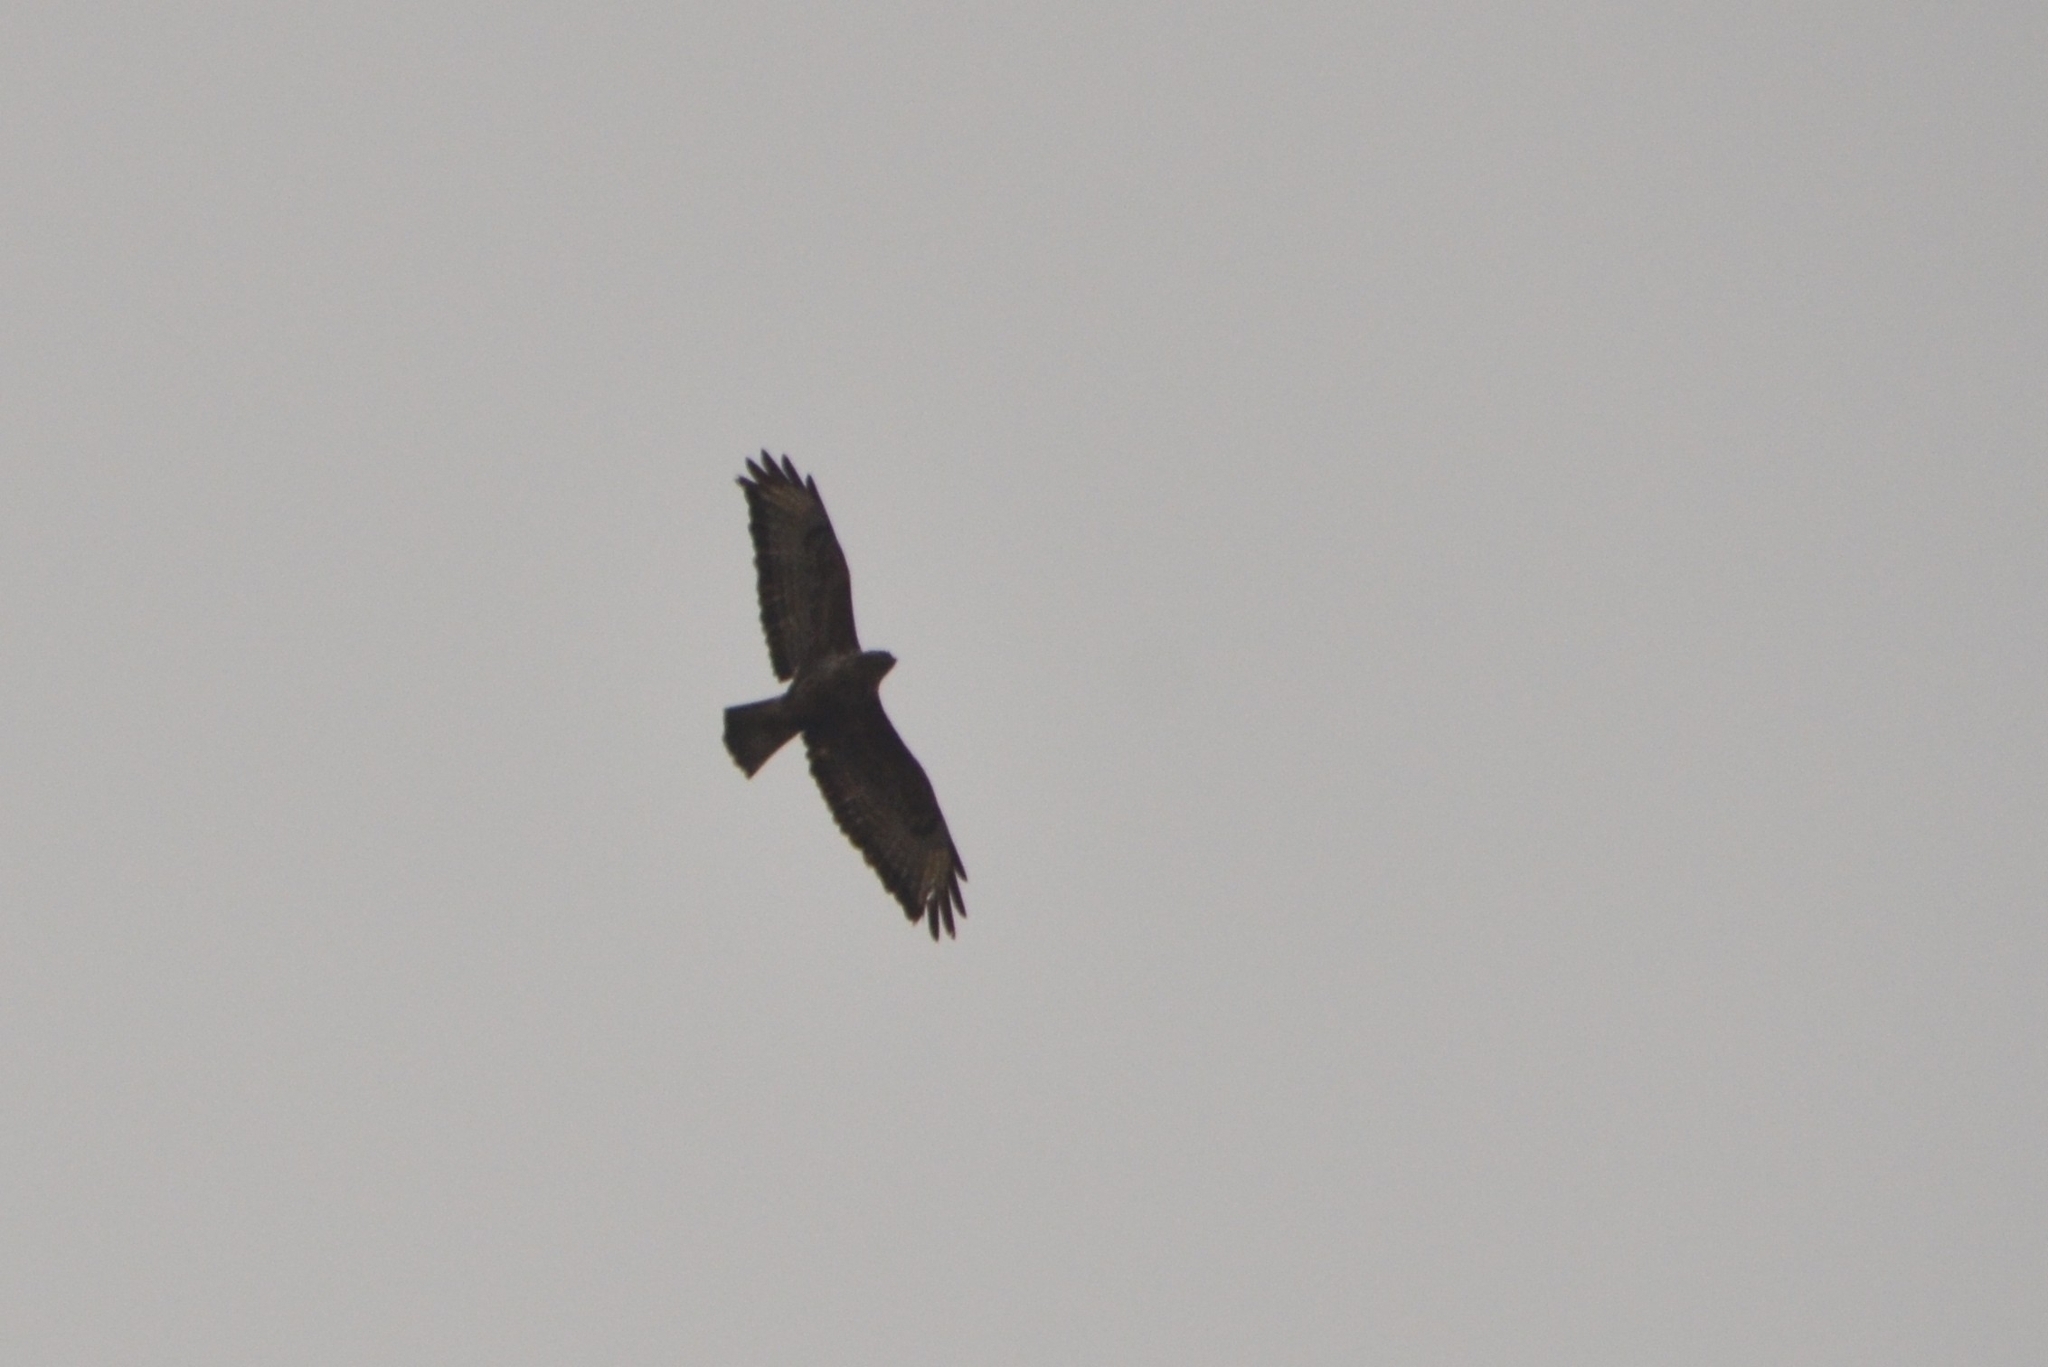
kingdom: Animalia
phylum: Chordata
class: Aves
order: Accipitriformes
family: Accipitridae
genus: Buteo
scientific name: Buteo buteo
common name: Common buzzard
